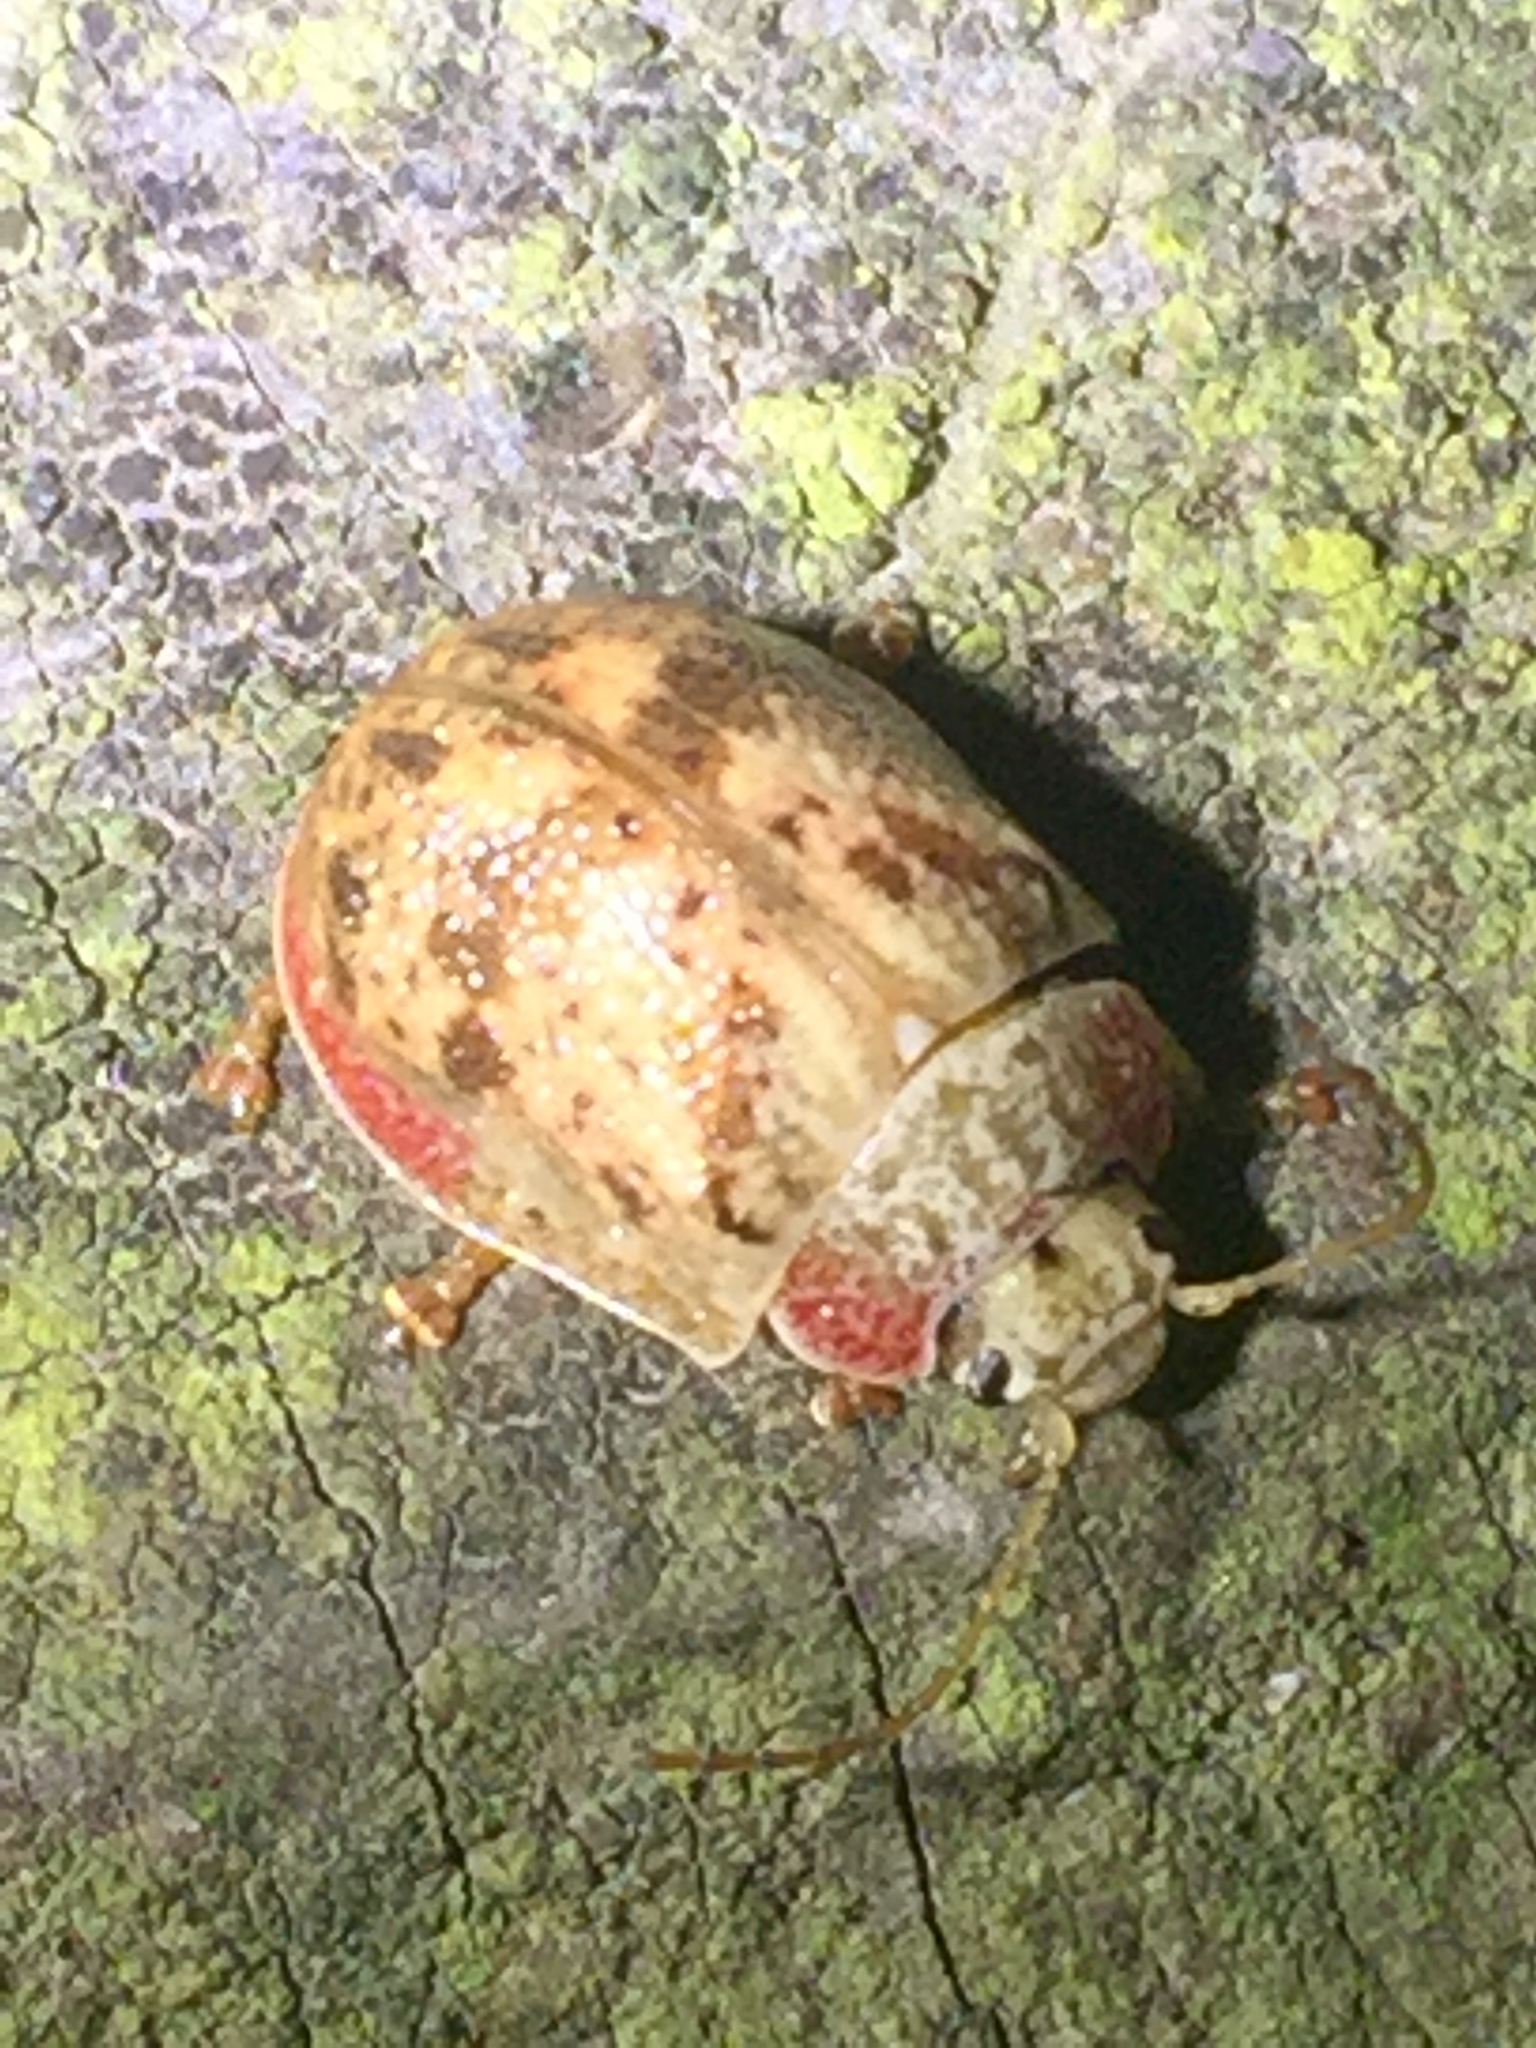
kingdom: Animalia
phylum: Arthropoda
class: Insecta
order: Coleoptera
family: Chrysomelidae
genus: Paropsis
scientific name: Paropsis charybdis
